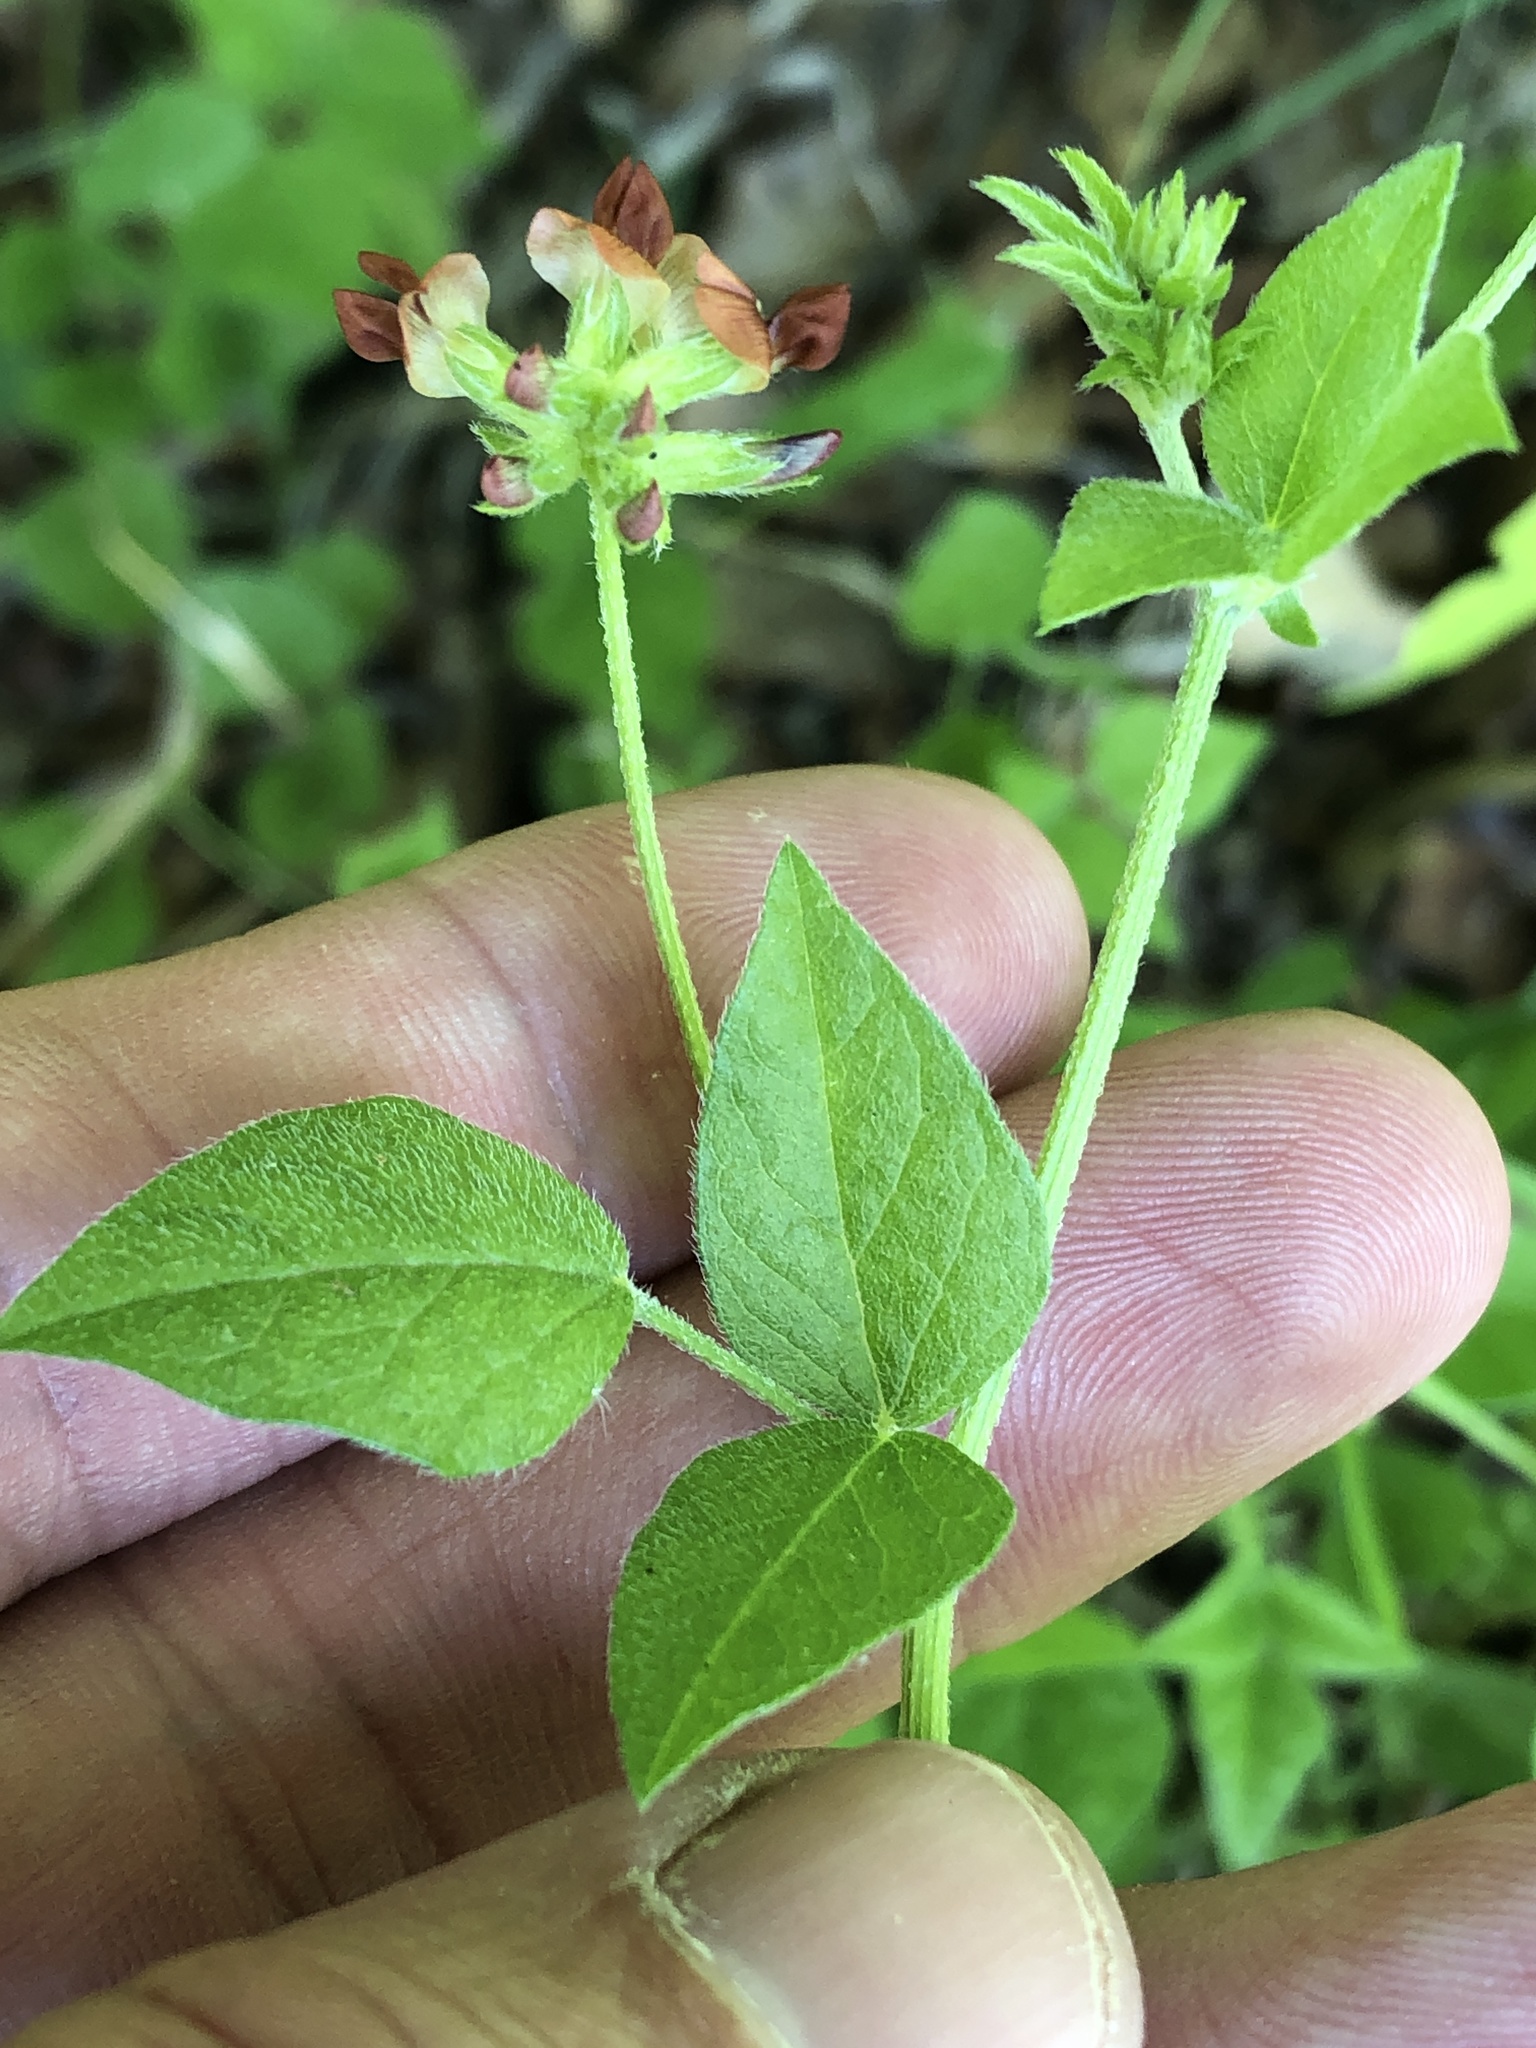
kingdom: Plantae
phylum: Tracheophyta
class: Magnoliopsida
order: Fabales
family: Fabaceae
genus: Pediomelum
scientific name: Pediomelum rhombifolium
